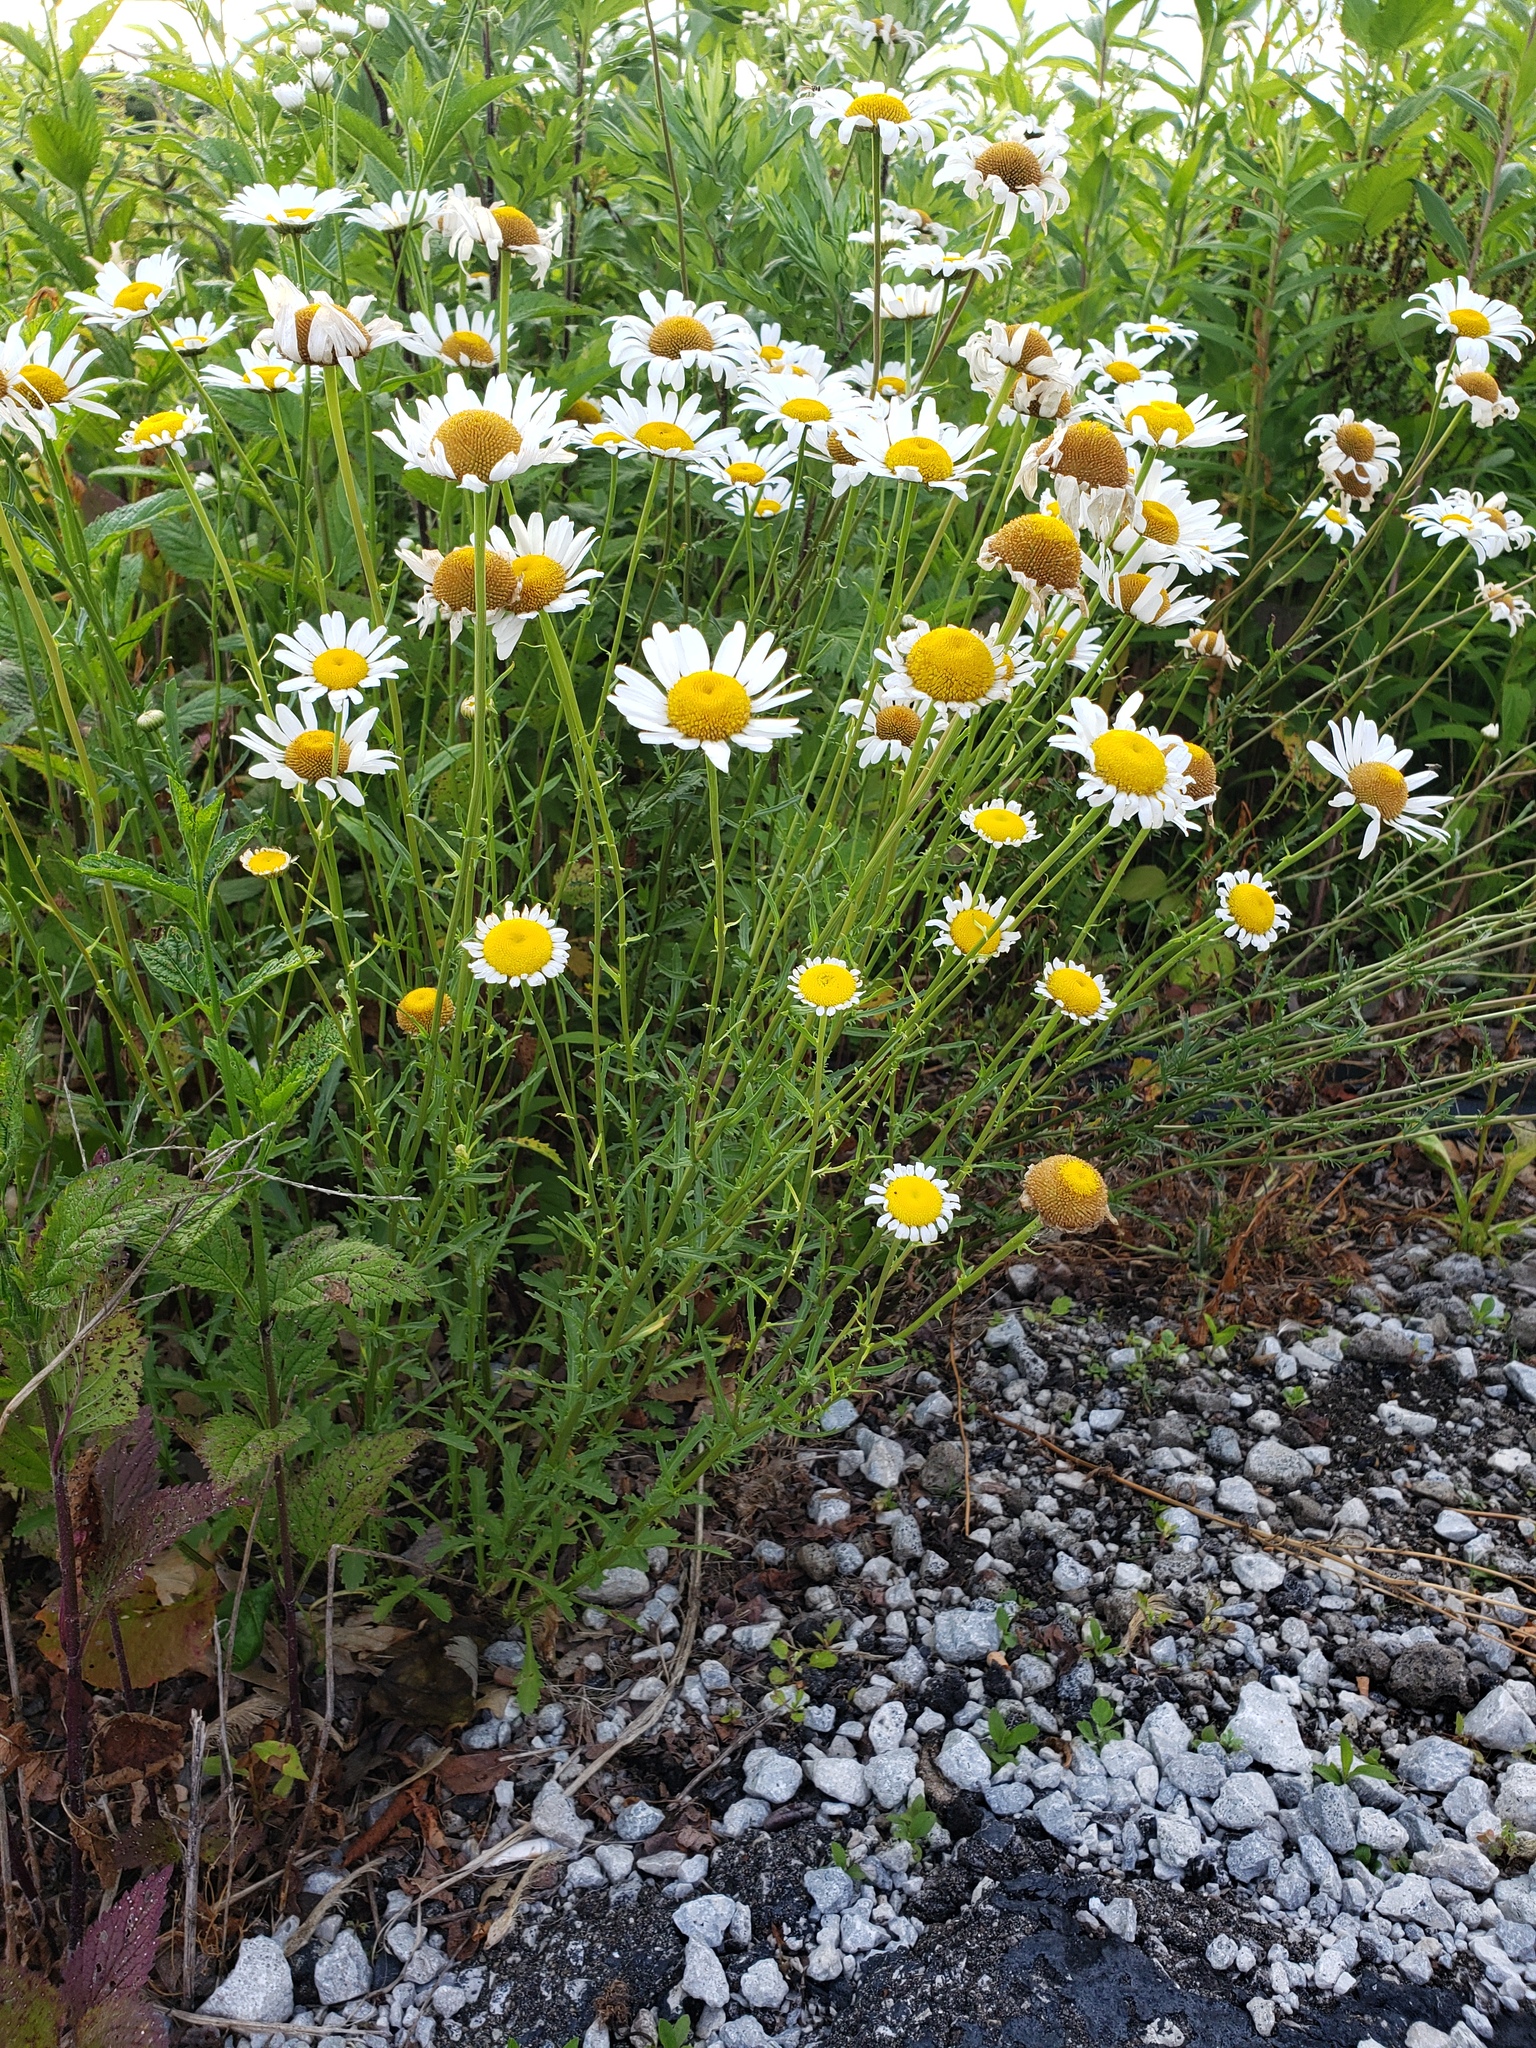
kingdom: Plantae
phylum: Tracheophyta
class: Magnoliopsida
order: Asterales
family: Asteraceae
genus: Leucanthemum
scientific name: Leucanthemum vulgare
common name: Oxeye daisy
